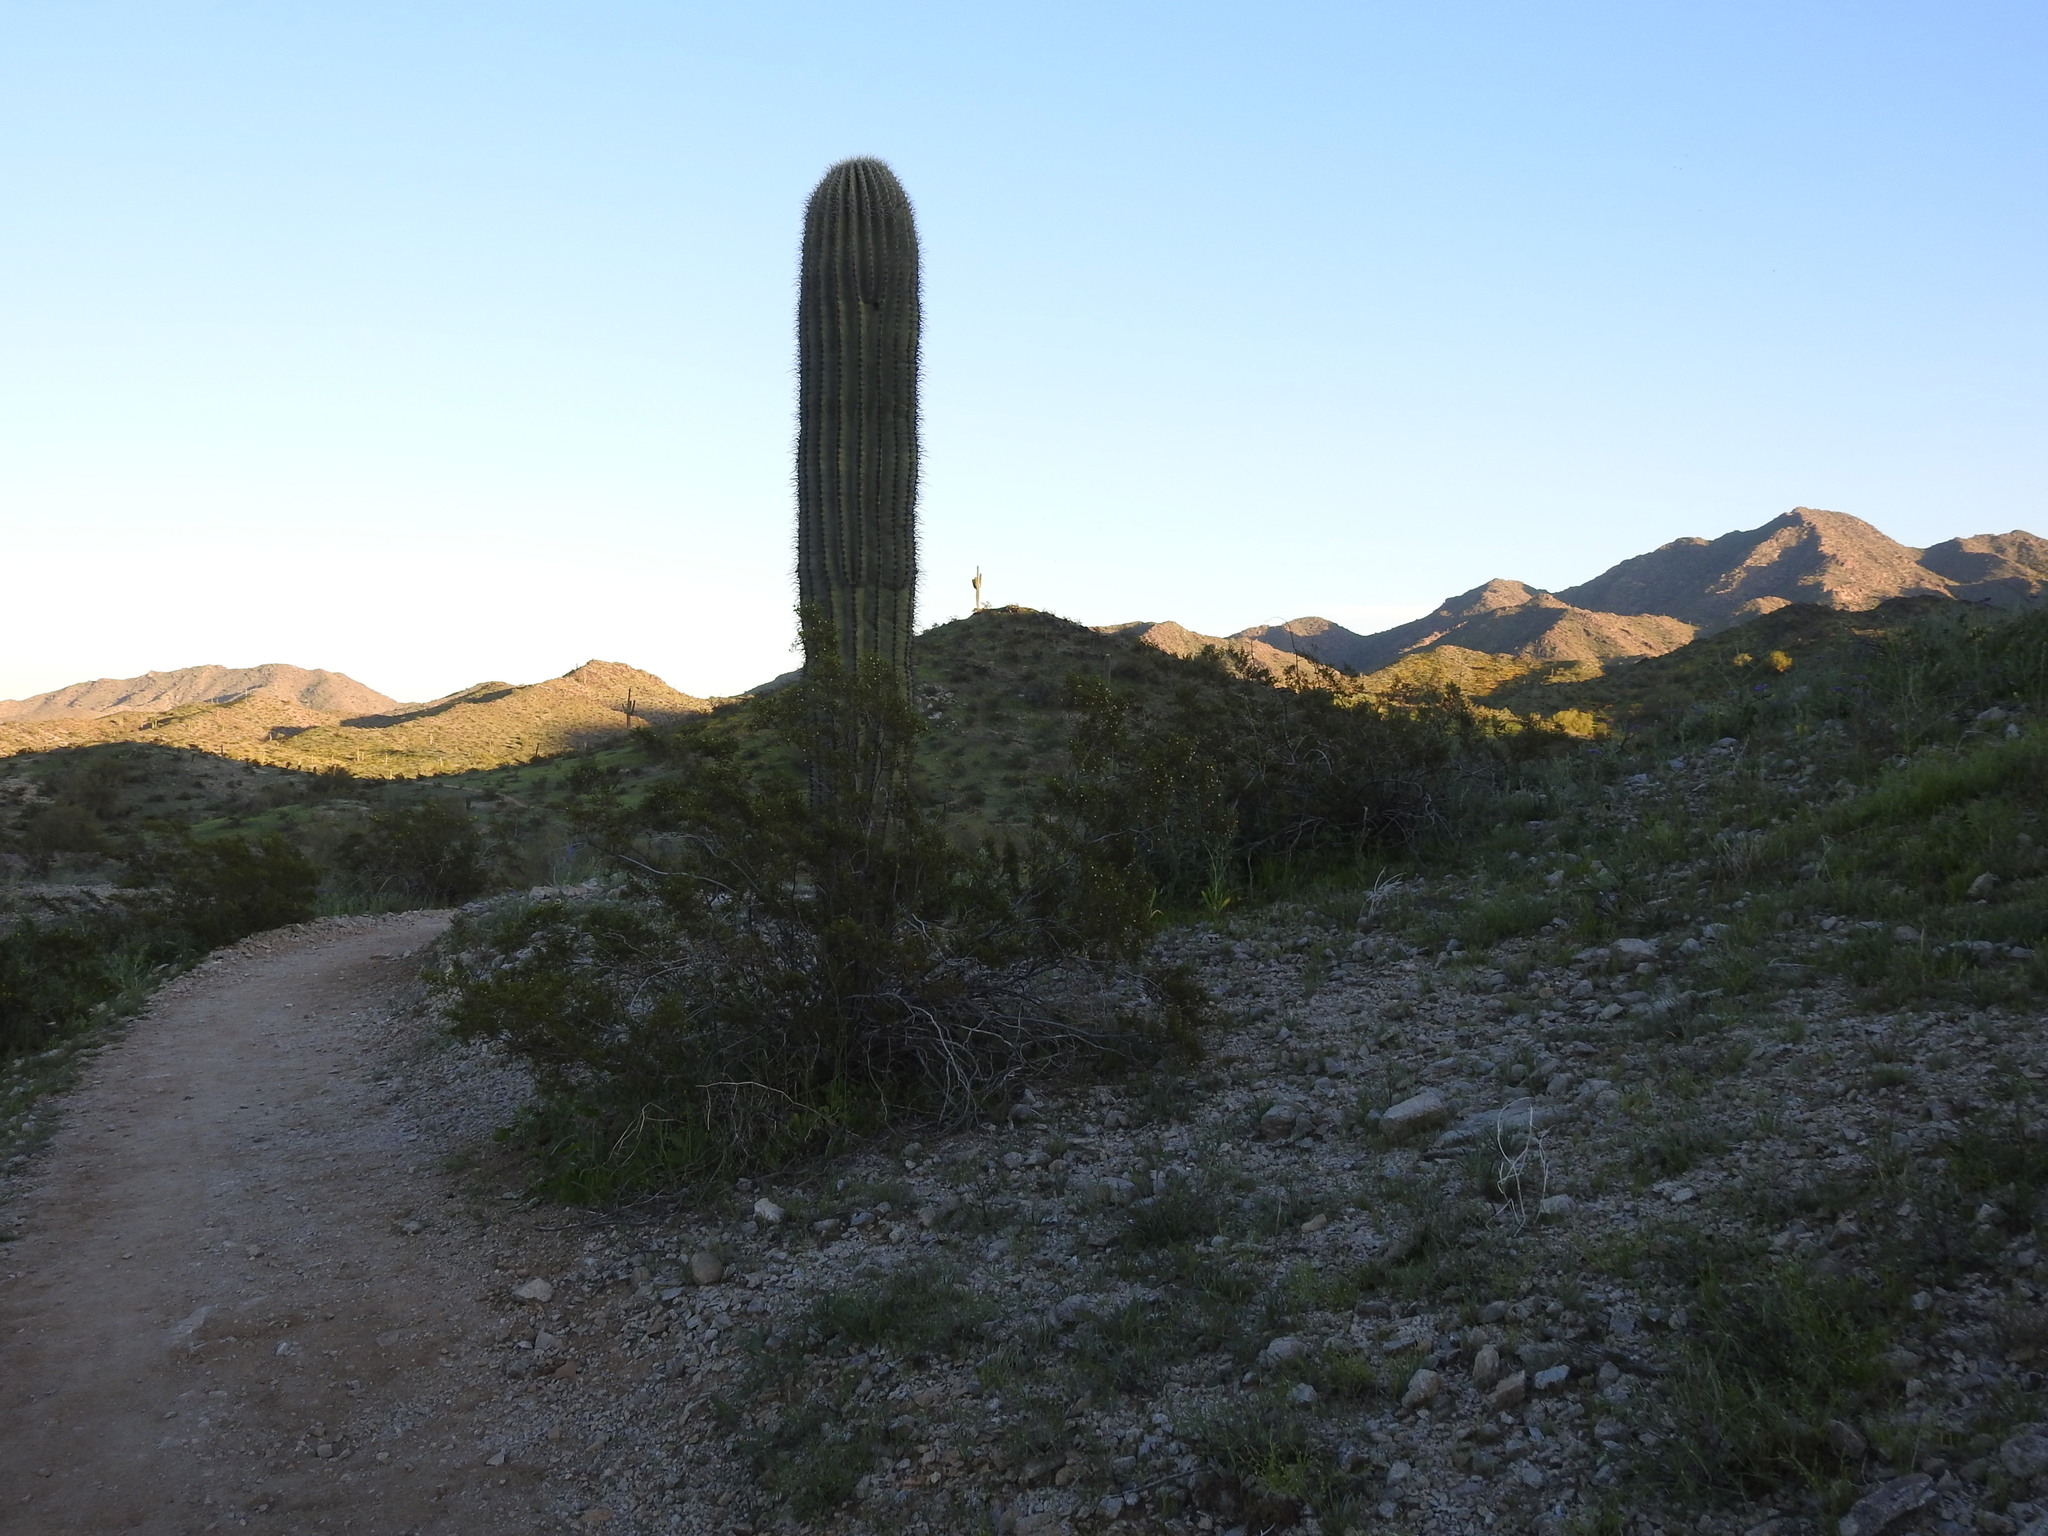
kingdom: Plantae
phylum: Tracheophyta
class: Magnoliopsida
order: Caryophyllales
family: Cactaceae
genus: Carnegiea
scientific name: Carnegiea gigantea
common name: Saguaro
